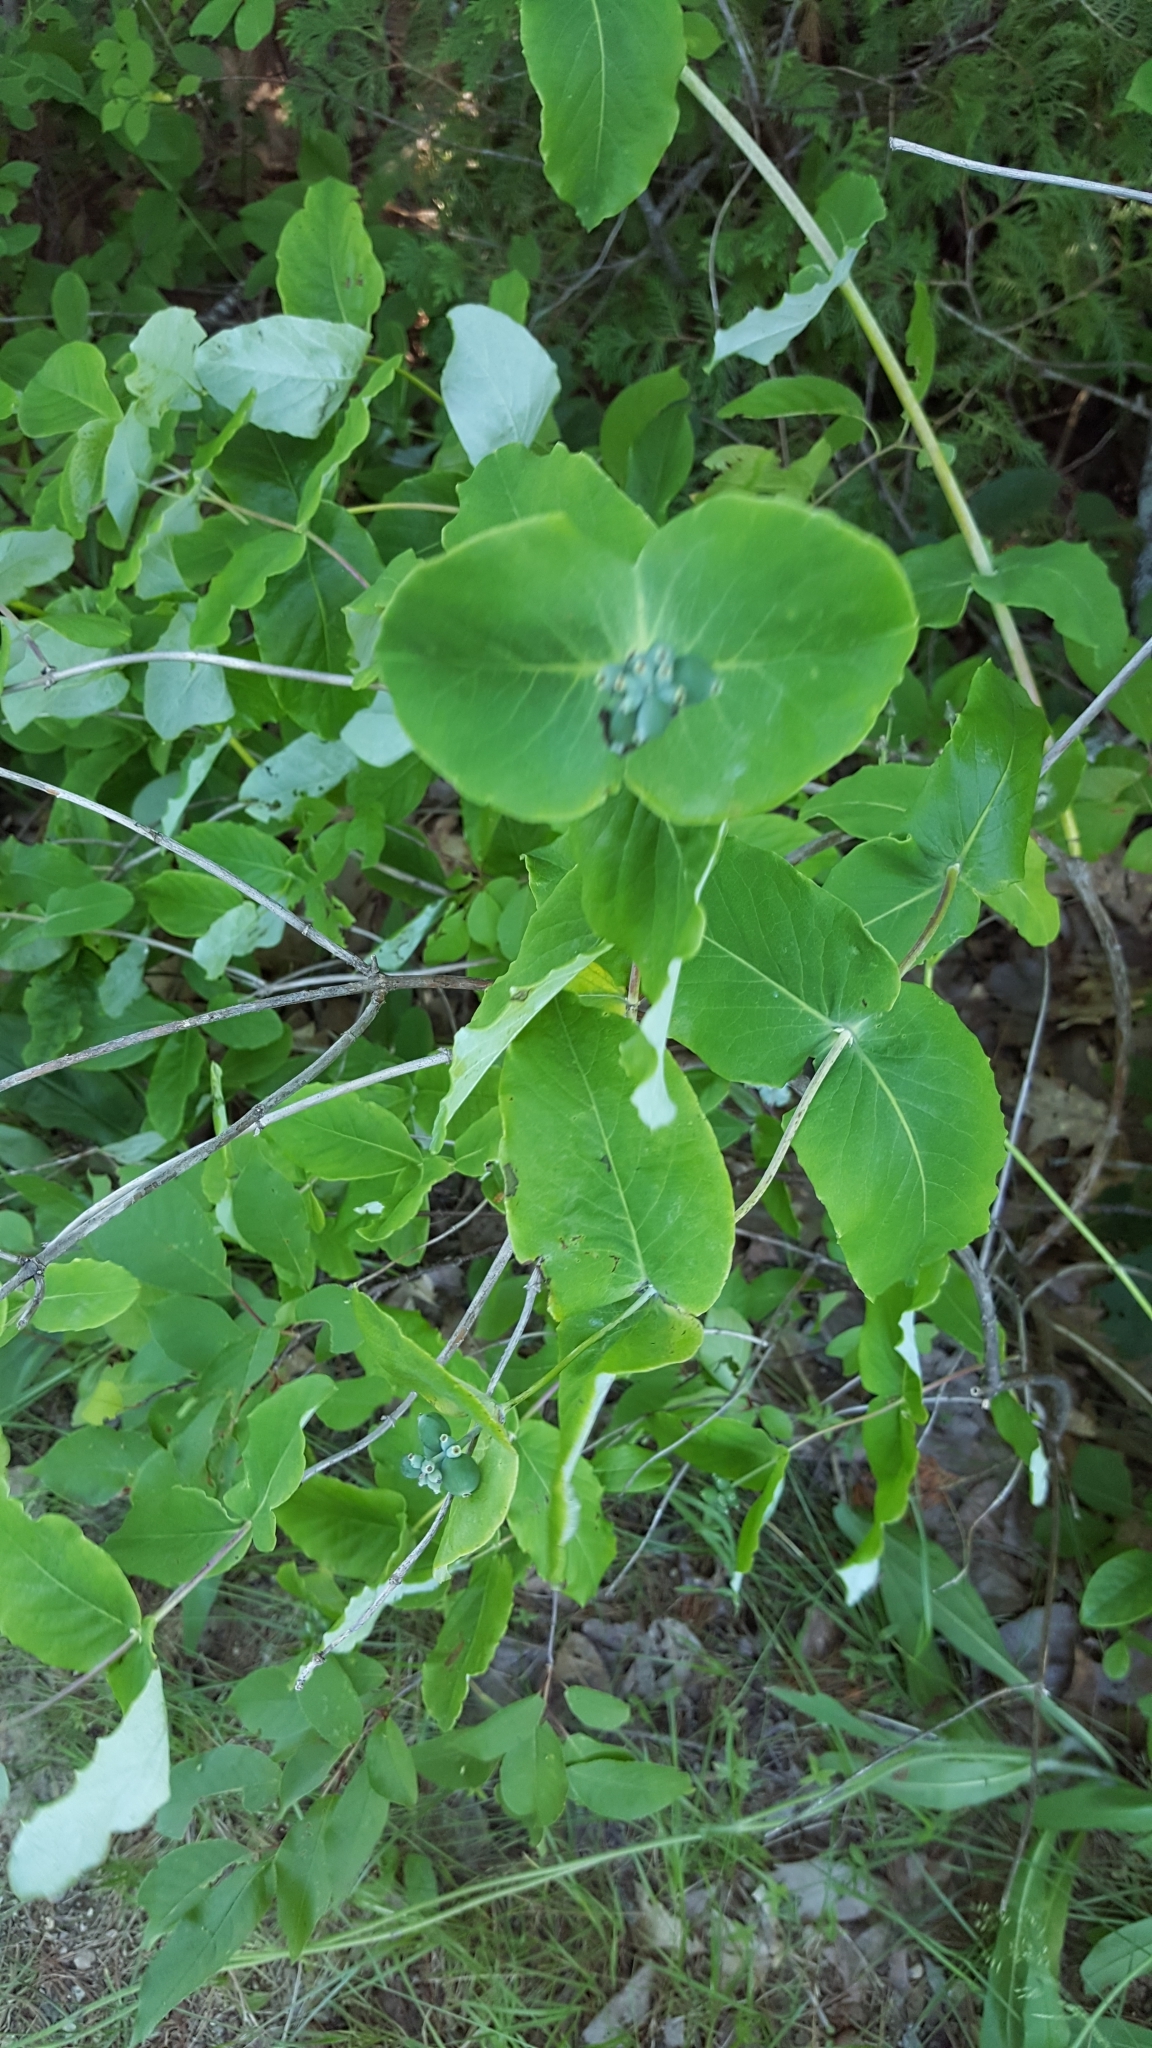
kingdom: Plantae
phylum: Tracheophyta
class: Magnoliopsida
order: Dipsacales
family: Caprifoliaceae
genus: Lonicera
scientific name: Lonicera sempervirens
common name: Coral honeysuckle
